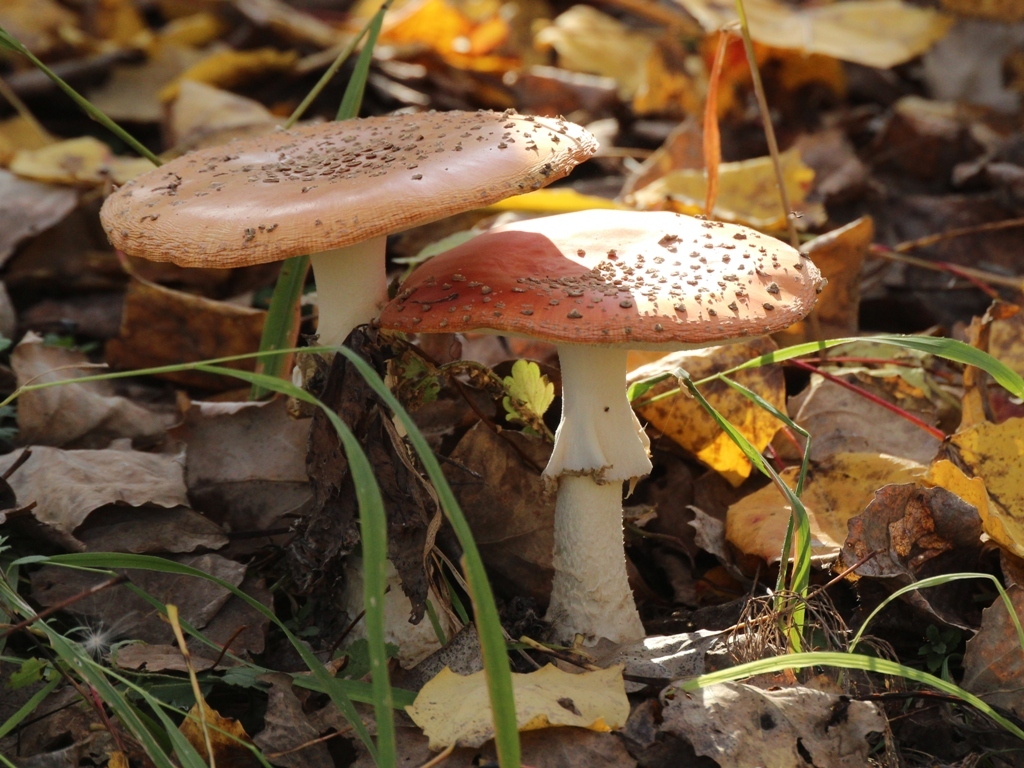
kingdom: Fungi
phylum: Basidiomycota
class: Agaricomycetes
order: Agaricales
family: Amanitaceae
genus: Amanita
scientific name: Amanita muscaria
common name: Fly agaric
